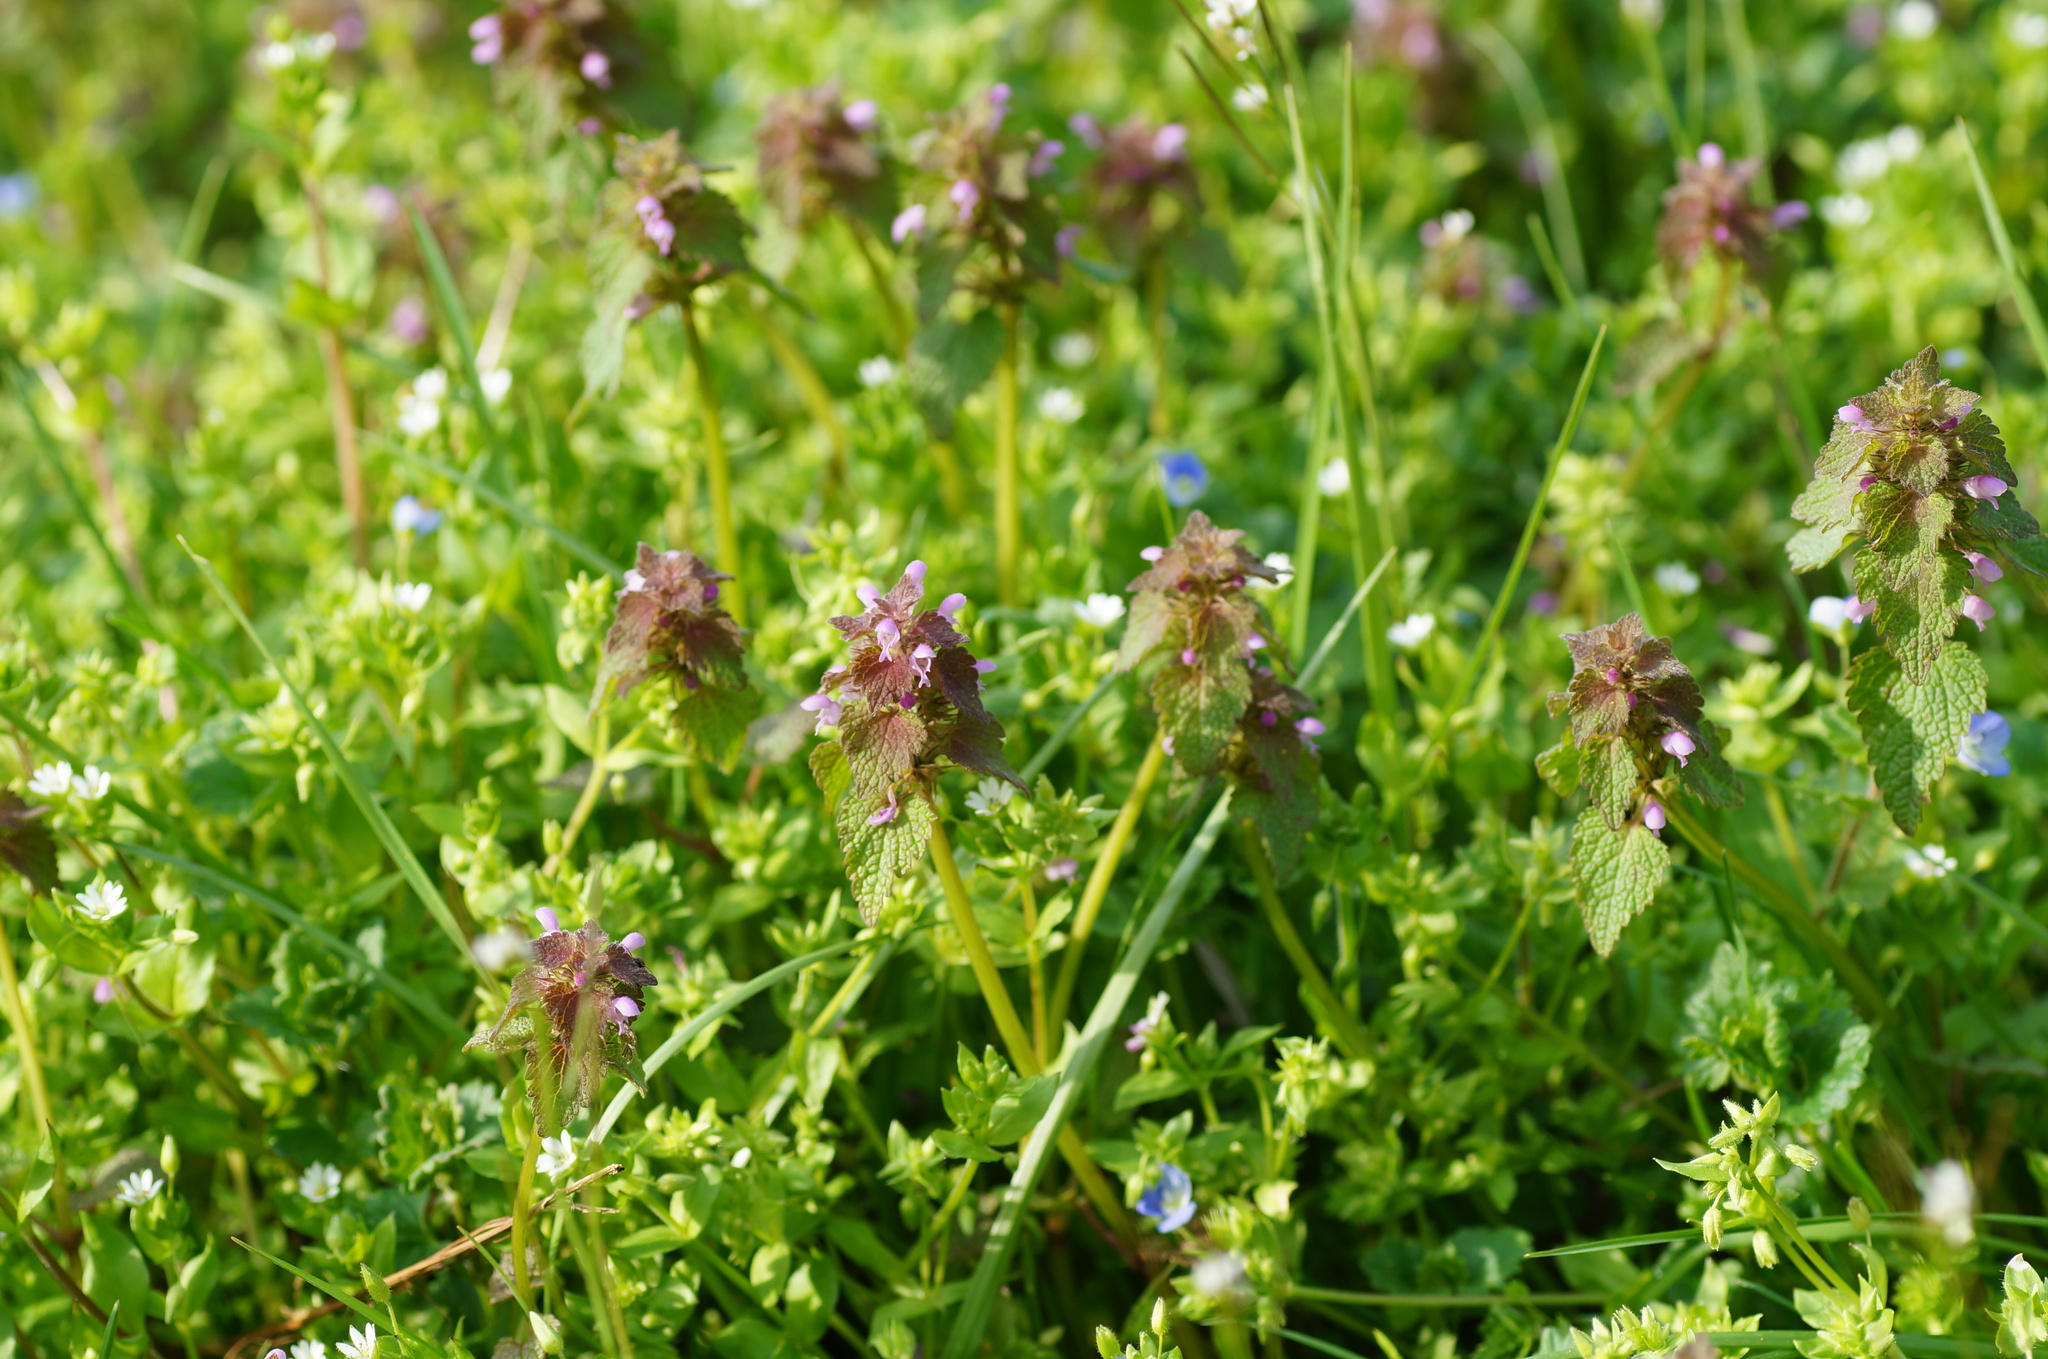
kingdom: Plantae
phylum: Tracheophyta
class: Magnoliopsida
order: Lamiales
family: Lamiaceae
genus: Lamium
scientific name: Lamium purpureum
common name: Red dead-nettle
